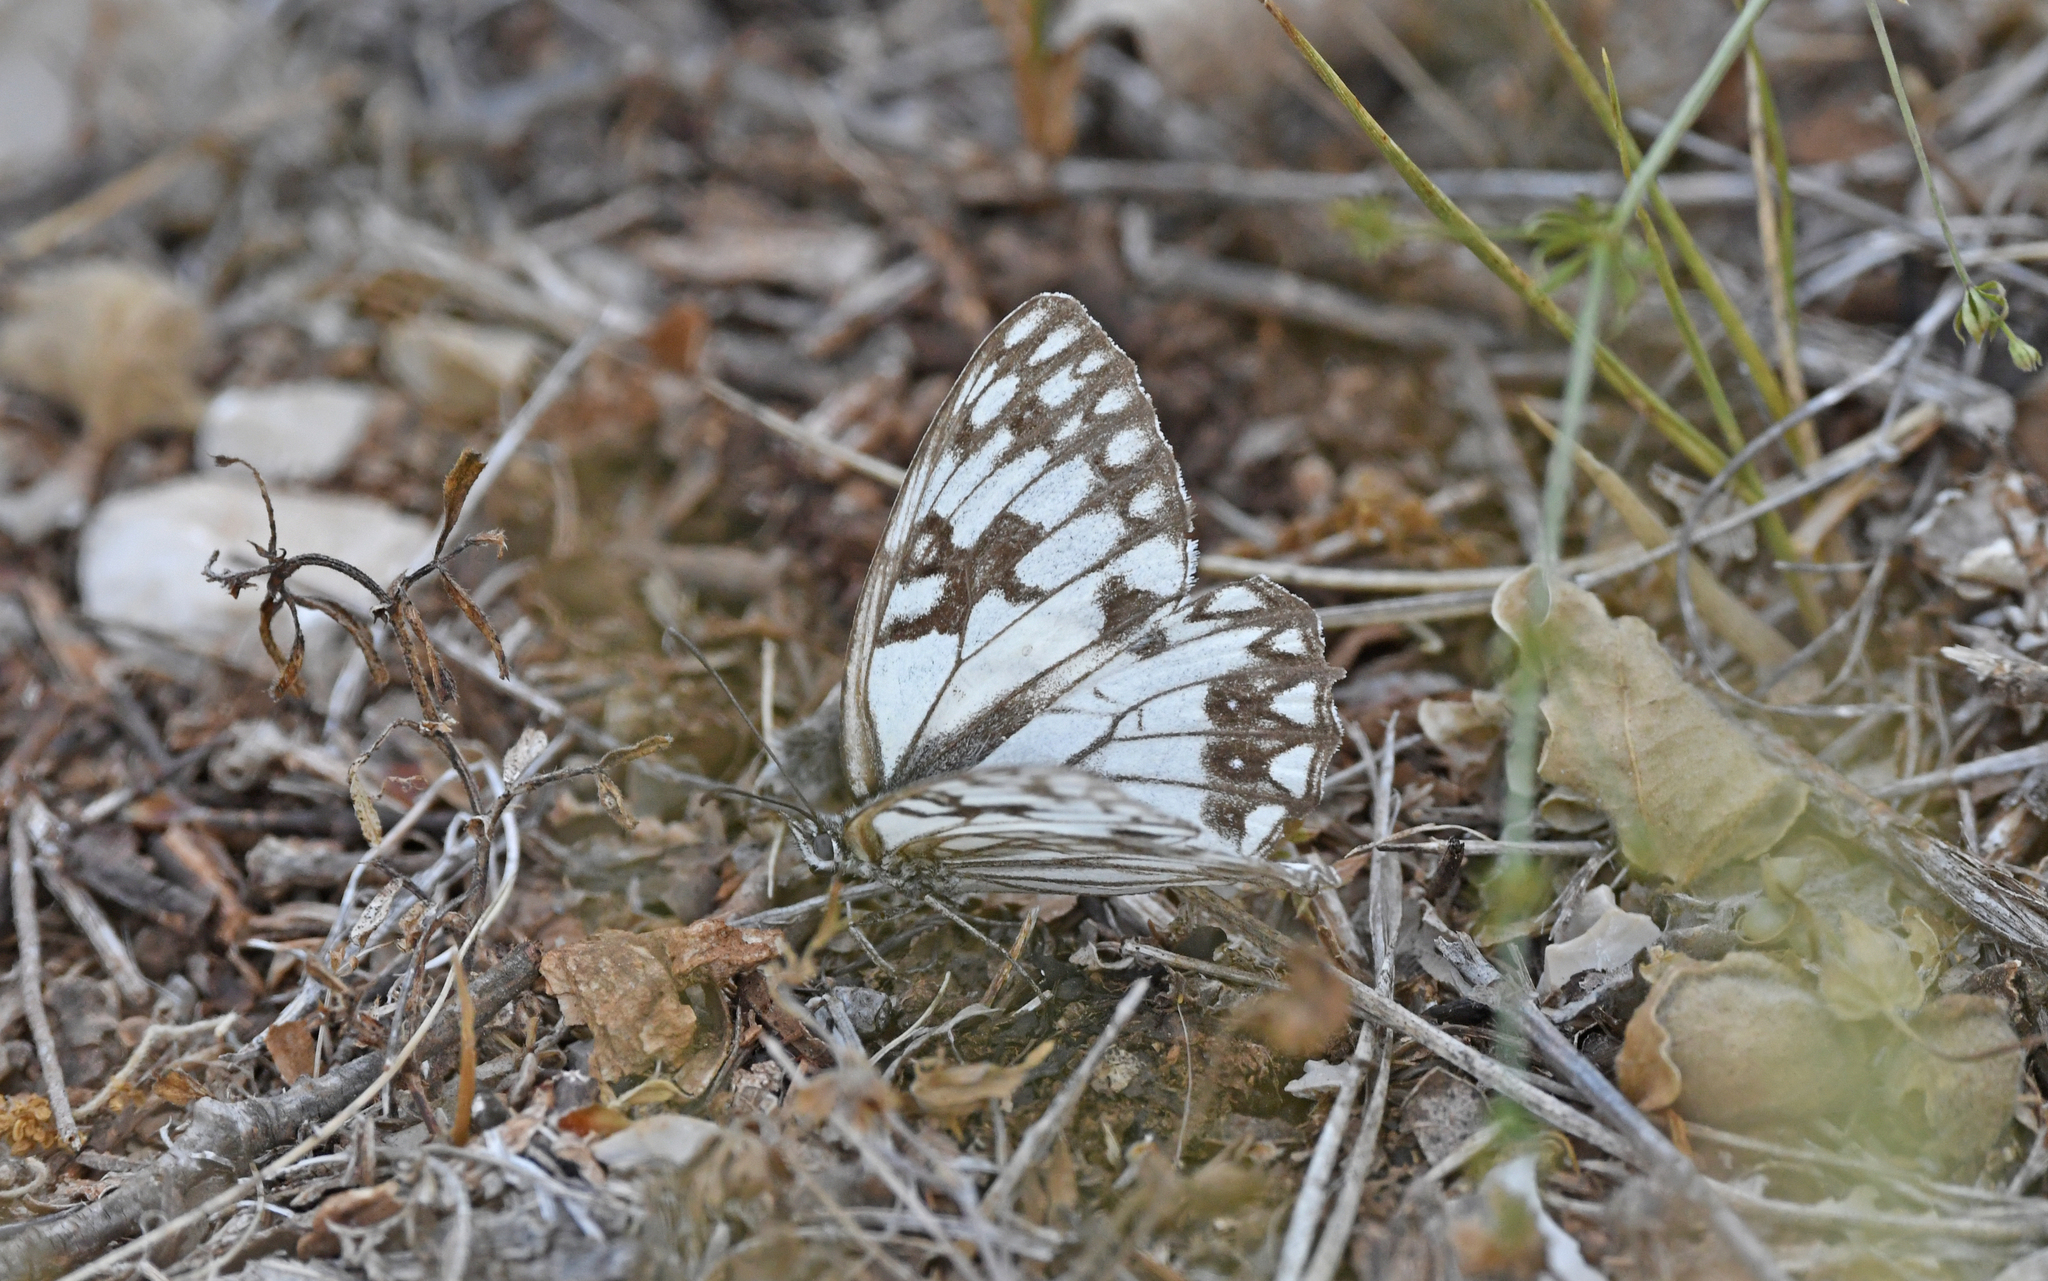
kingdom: Animalia
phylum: Arthropoda
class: Insecta
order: Lepidoptera
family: Nymphalidae
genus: Melanargia
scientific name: Melanargia occitanica
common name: Western marbled white
